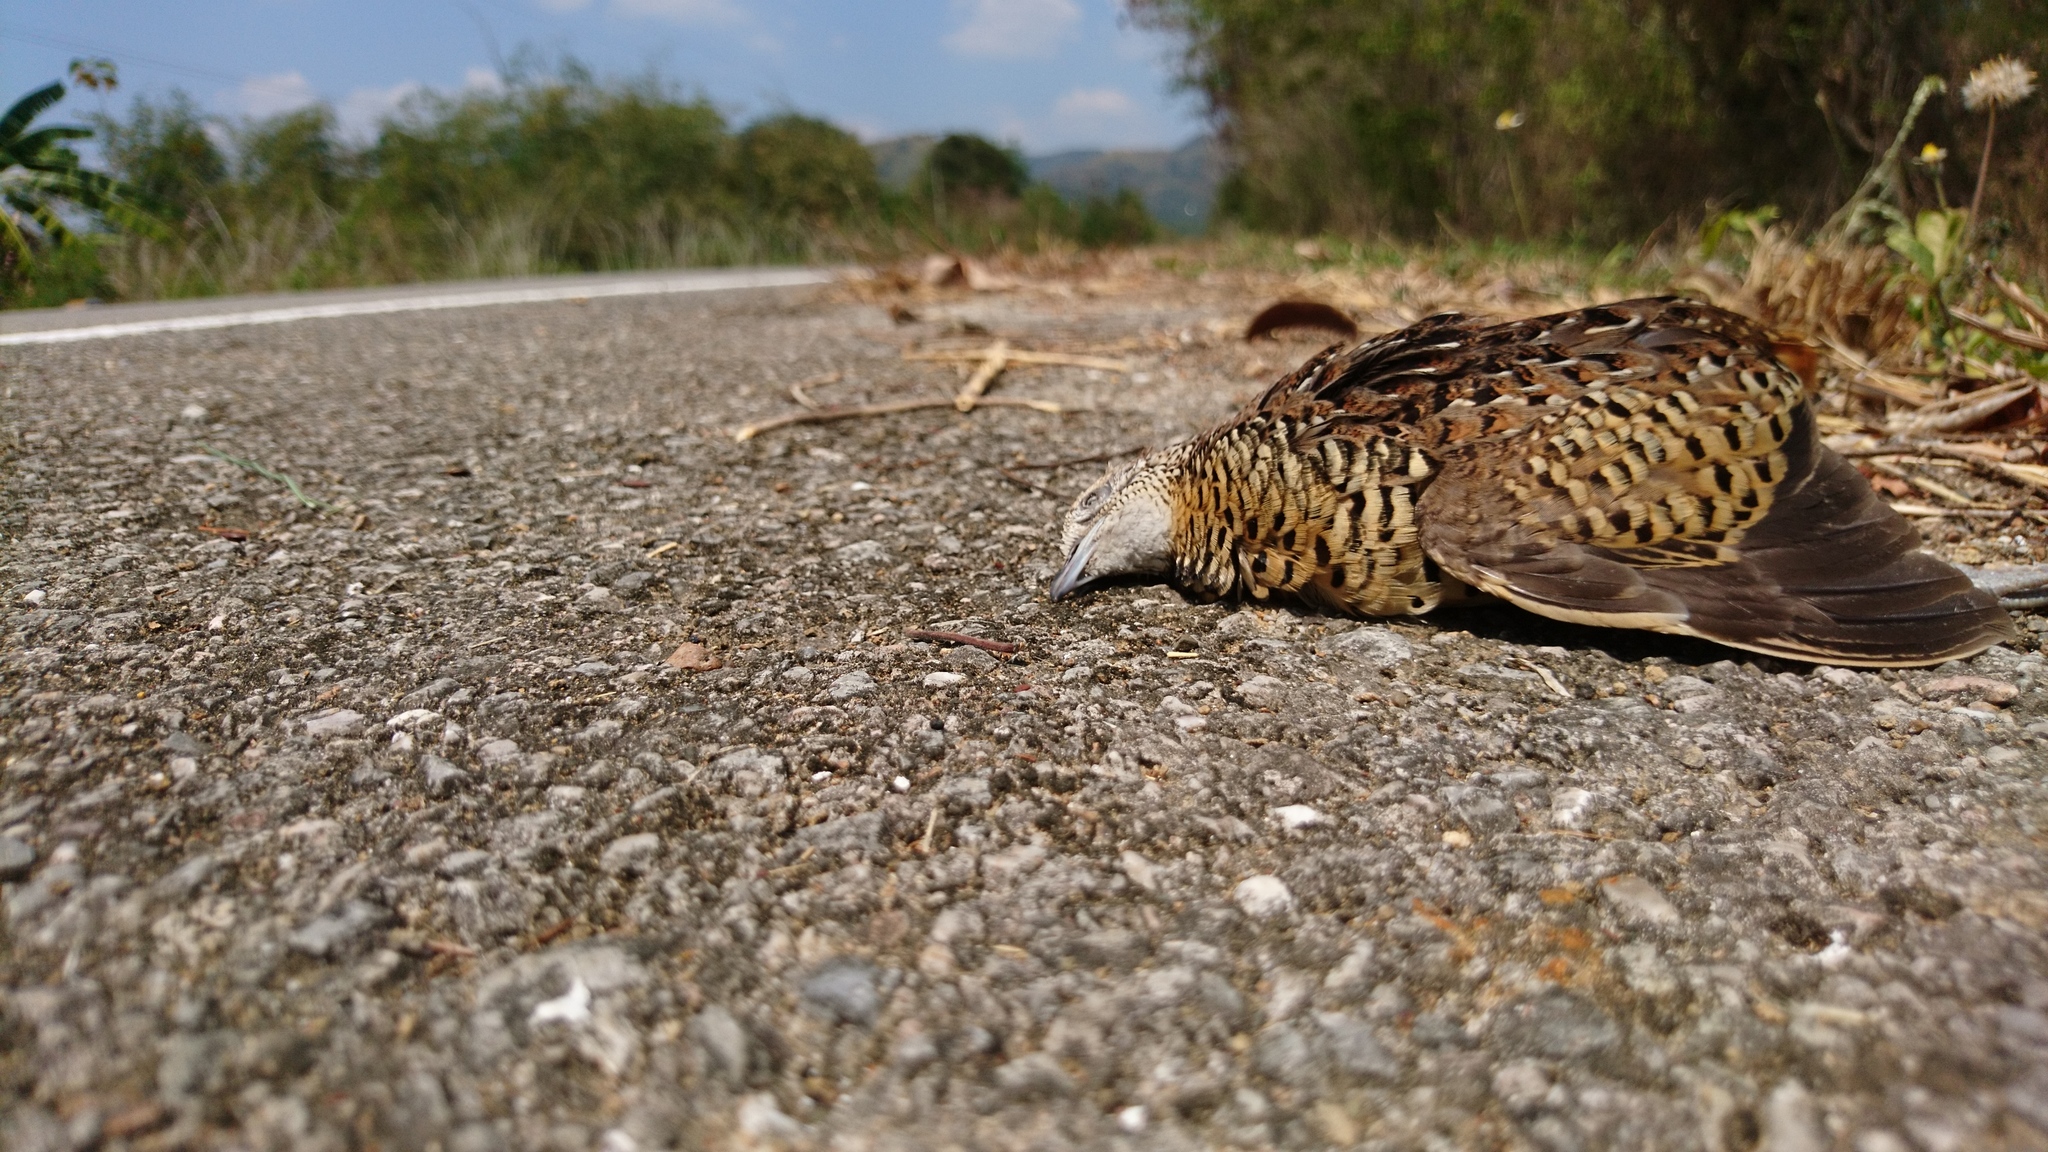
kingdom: Animalia
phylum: Chordata
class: Aves
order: Charadriiformes
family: Turnicidae
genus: Turnix
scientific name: Turnix suscitator
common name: Barred buttonquail
